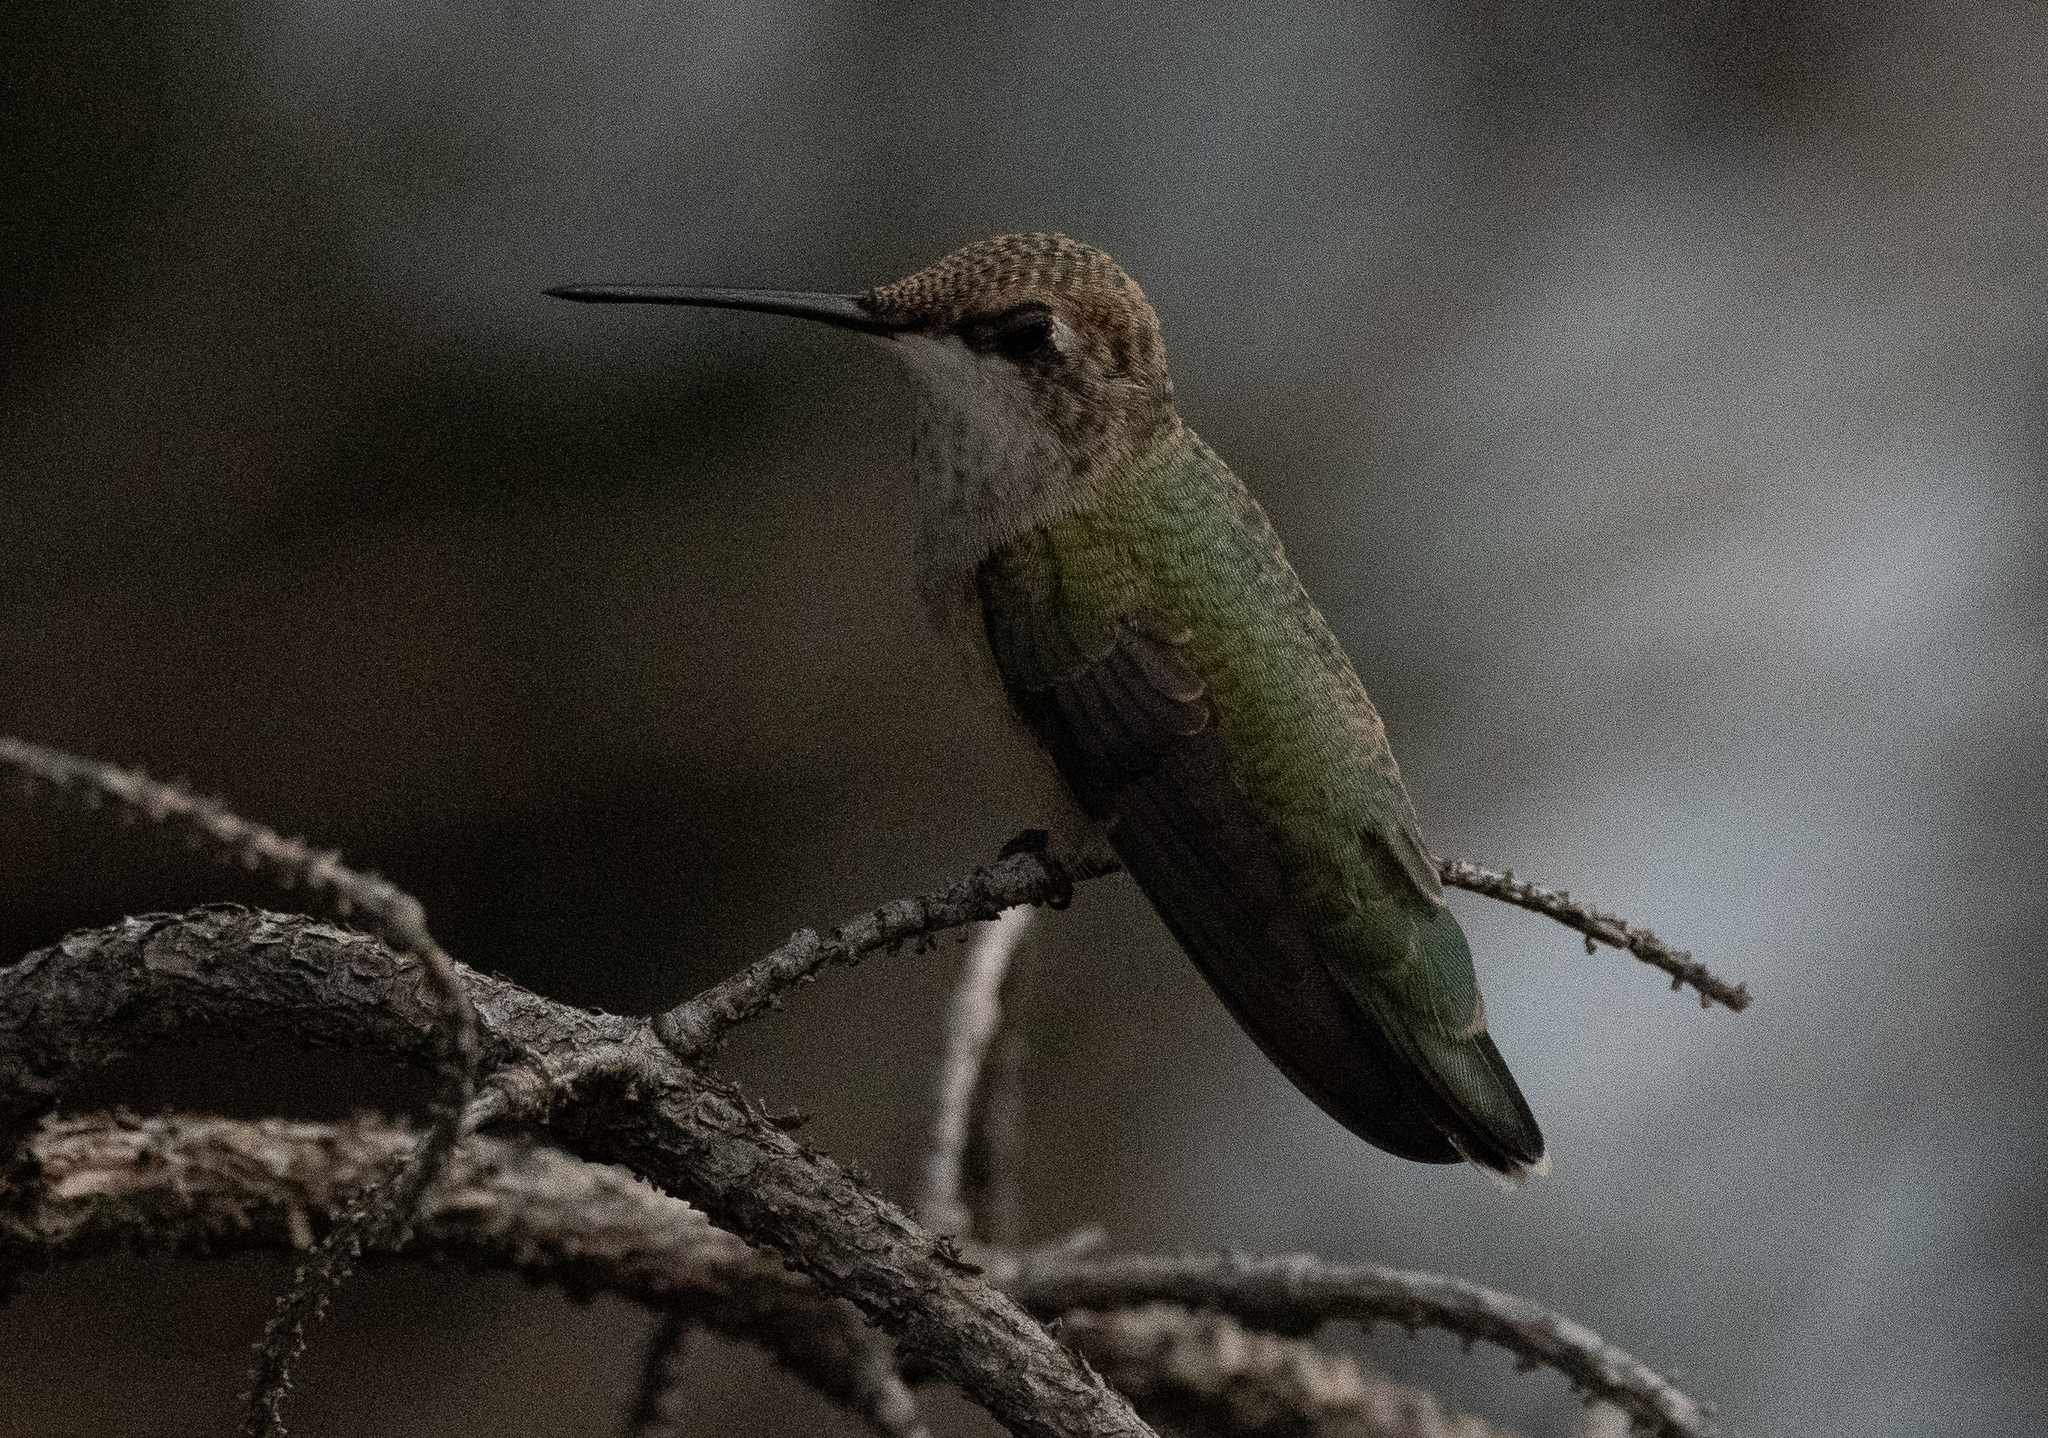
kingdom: Animalia
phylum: Chordata
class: Aves
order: Apodiformes
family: Trochilidae
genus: Archilochus
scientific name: Archilochus alexandri
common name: Black-chinned hummingbird
